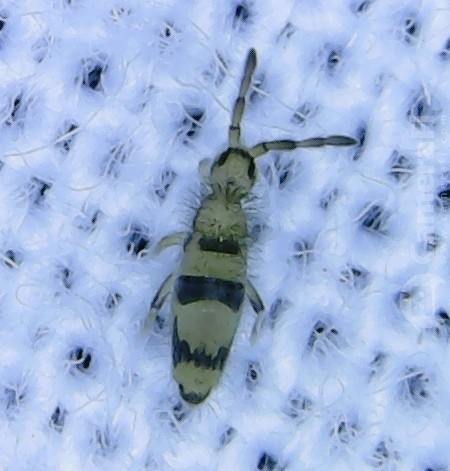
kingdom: Animalia
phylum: Arthropoda
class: Collembola
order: Entomobryomorpha
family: Entomobryidae
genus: Entomobrya
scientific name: Entomobrya triangularis
